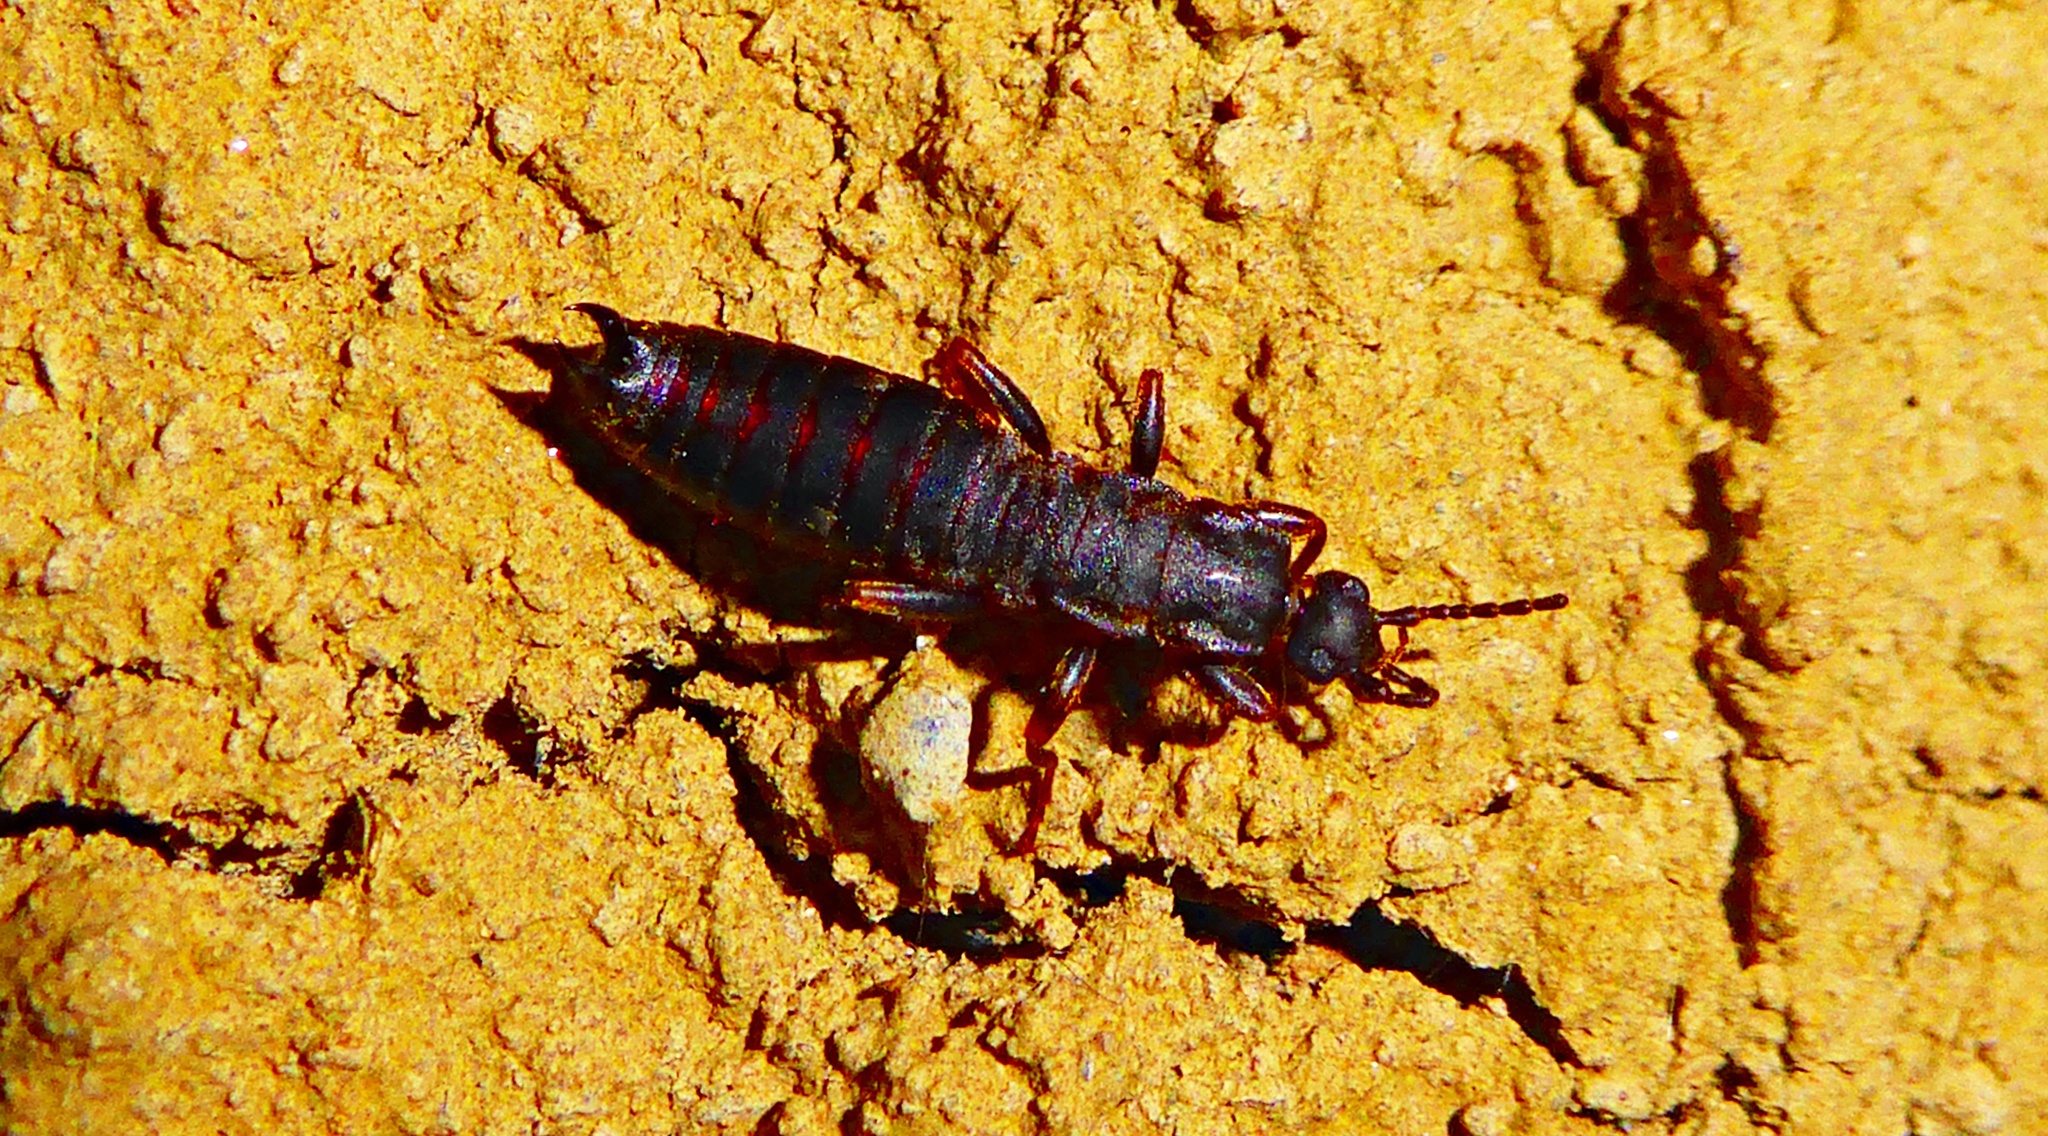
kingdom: Animalia
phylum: Arthropoda
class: Insecta
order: Dermaptera
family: Anisolabididae
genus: Ctenisolabis
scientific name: Ctenisolabis nigra
